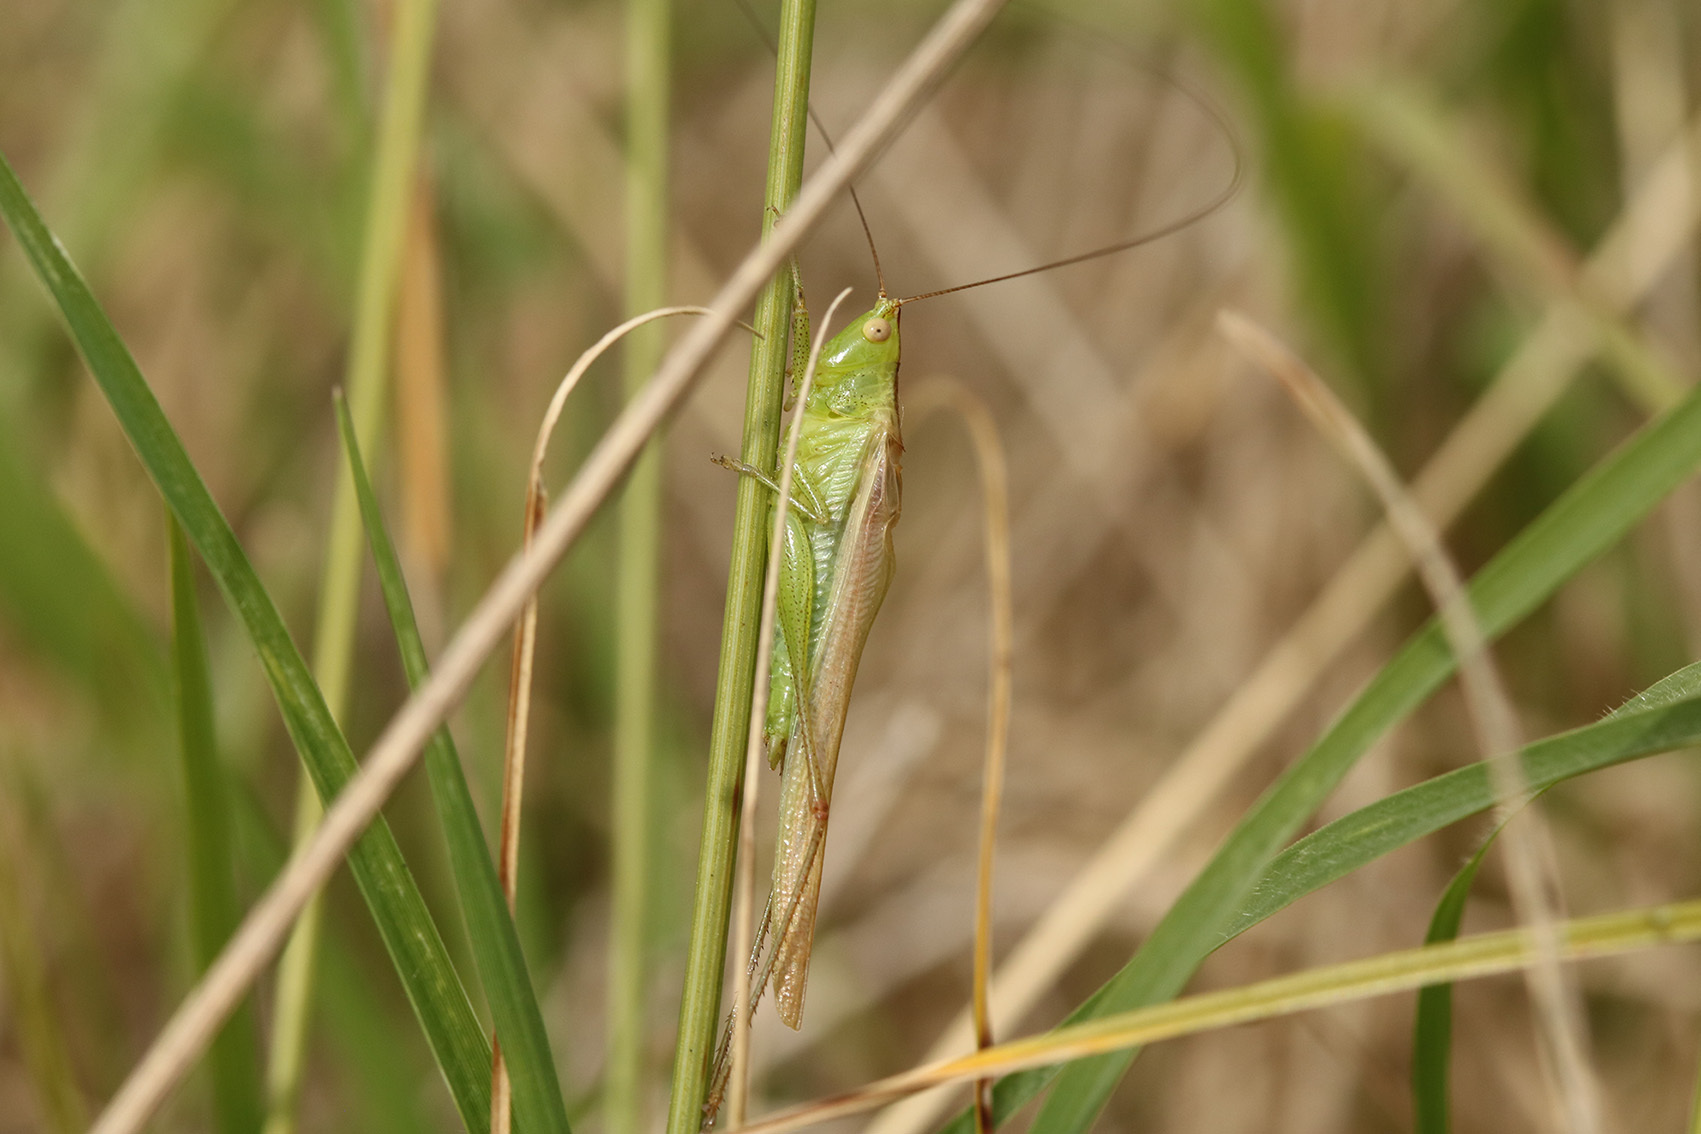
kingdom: Animalia
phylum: Arthropoda
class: Insecta
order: Orthoptera
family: Tettigoniidae
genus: Conocephalus
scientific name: Conocephalus longipes
